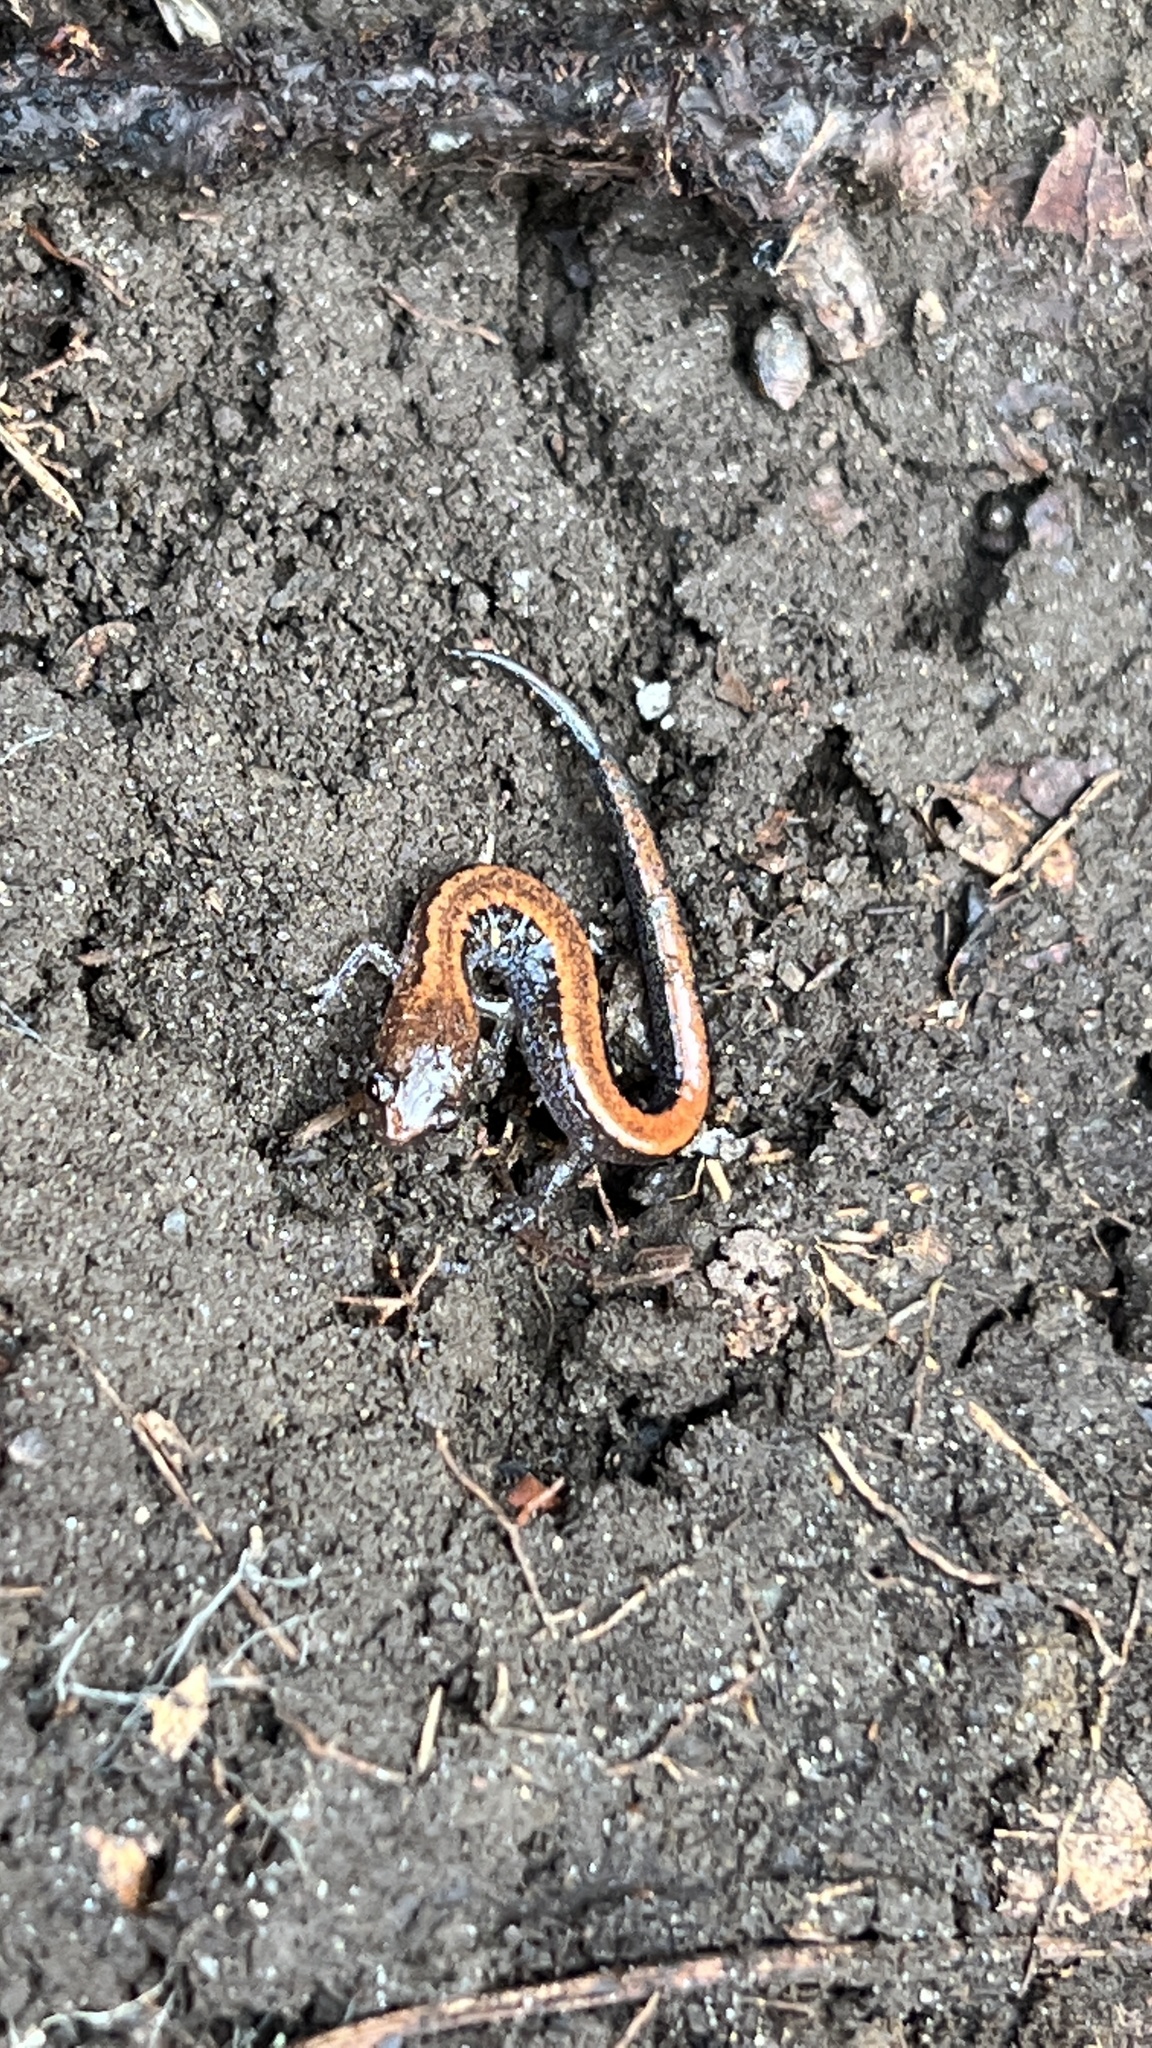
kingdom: Animalia
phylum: Chordata
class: Amphibia
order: Caudata
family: Plethodontidae
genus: Plethodon
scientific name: Plethodon cinereus
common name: Redback salamander
